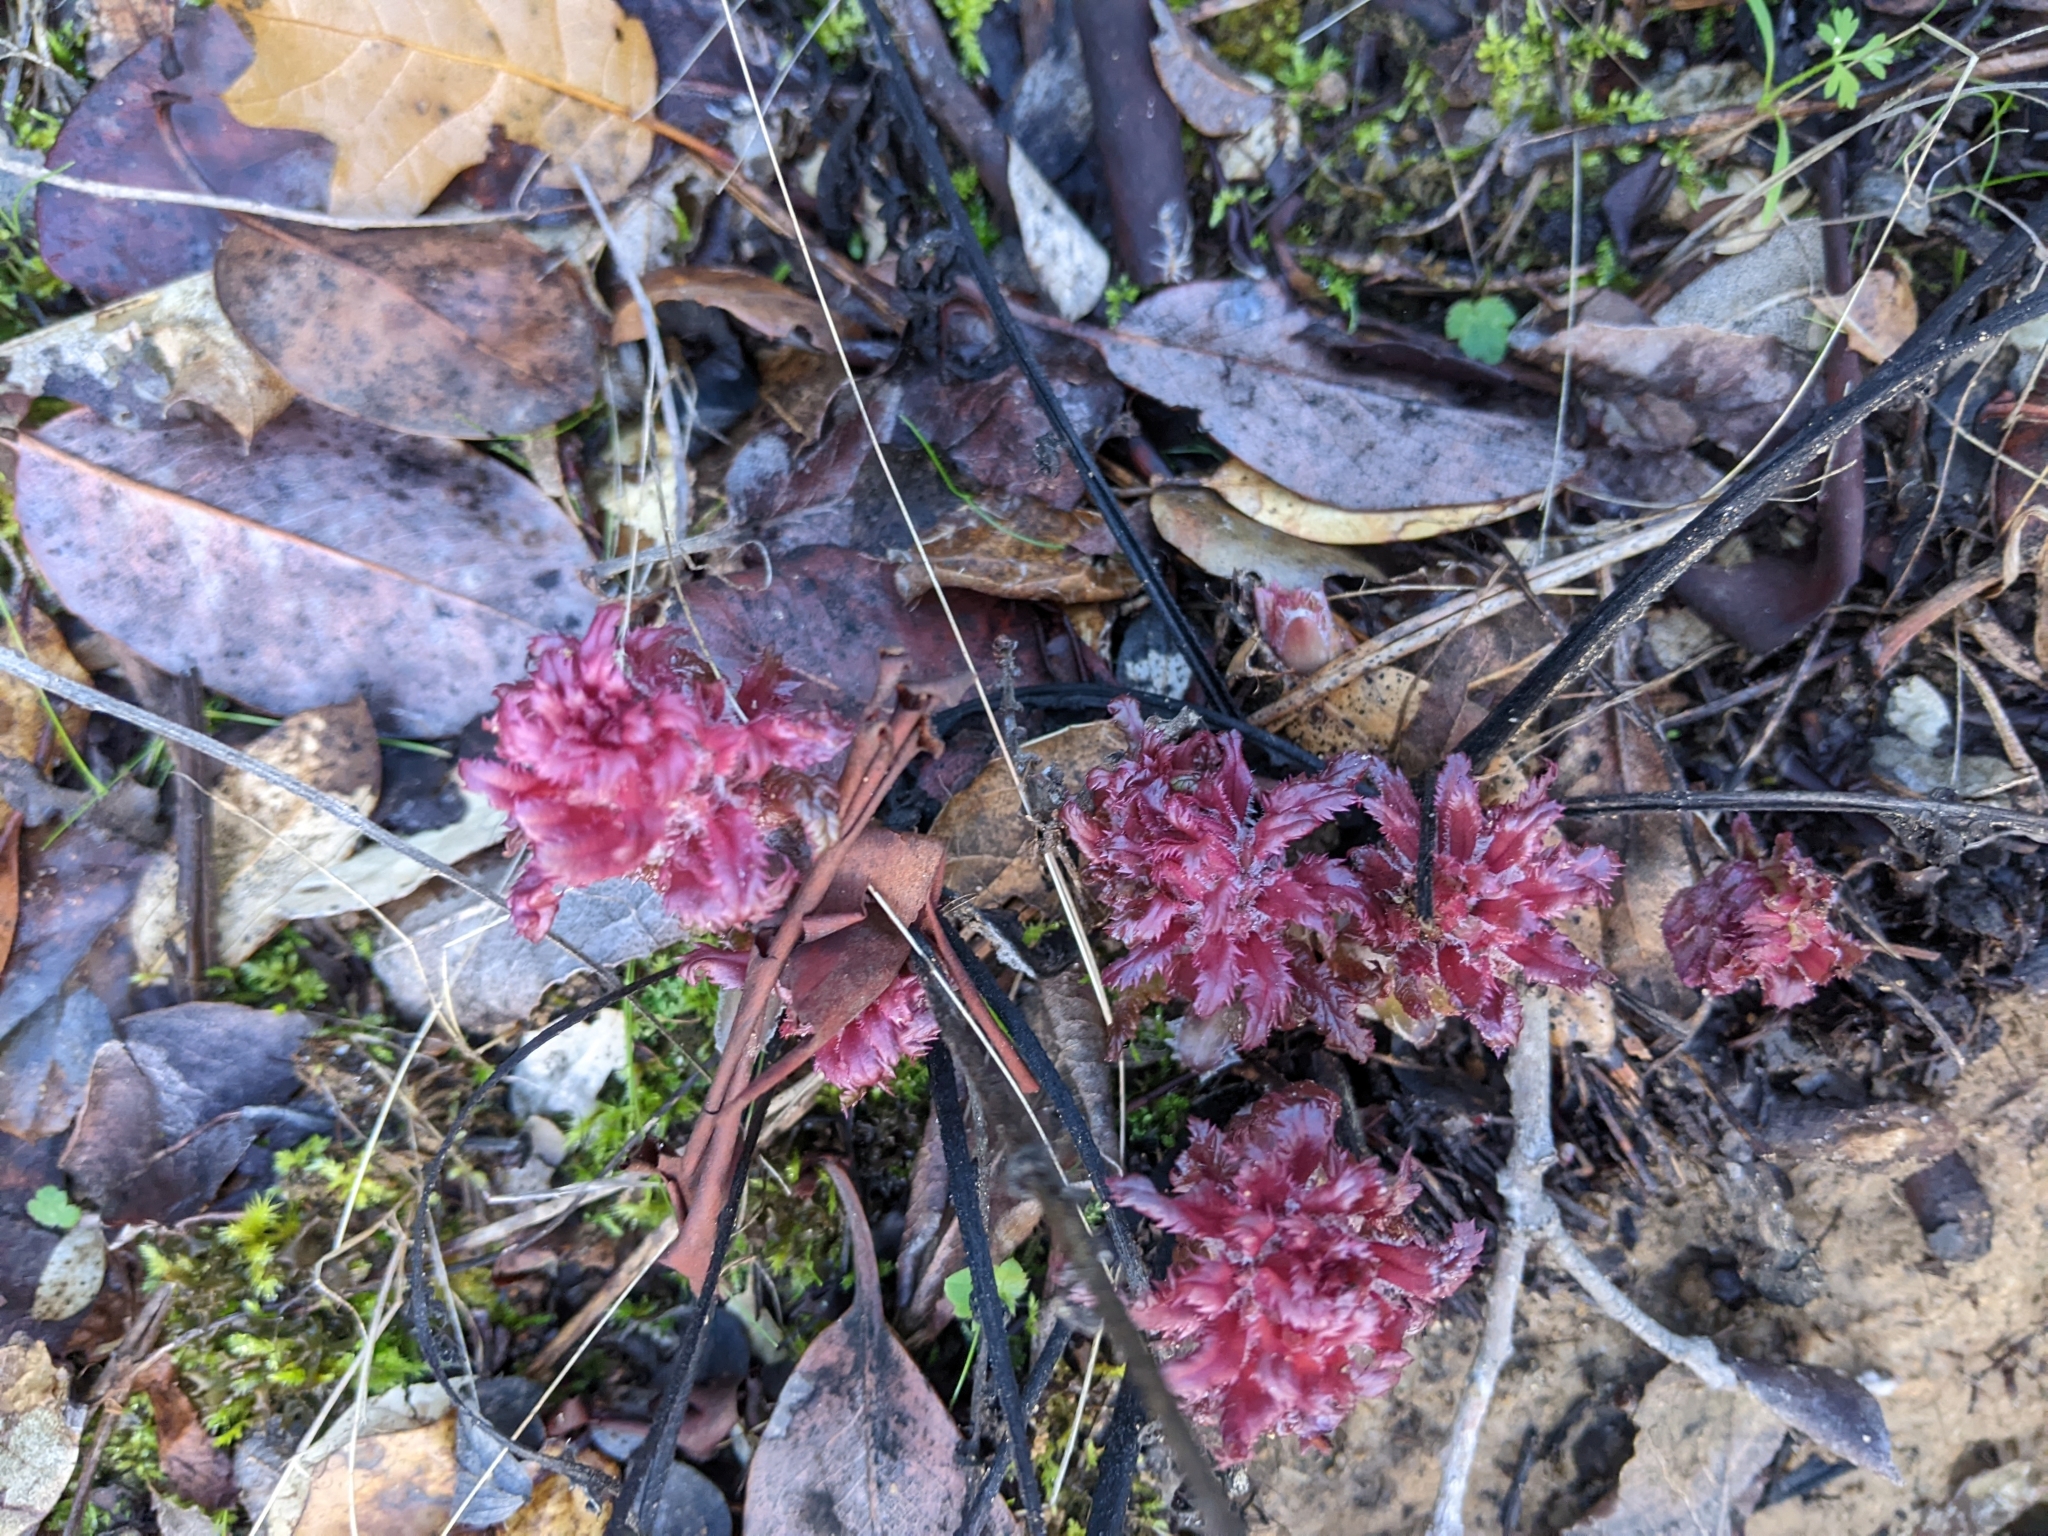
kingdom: Plantae
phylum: Tracheophyta
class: Magnoliopsida
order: Lamiales
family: Orobanchaceae
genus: Pedicularis
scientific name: Pedicularis densiflora
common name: Indian warrior
